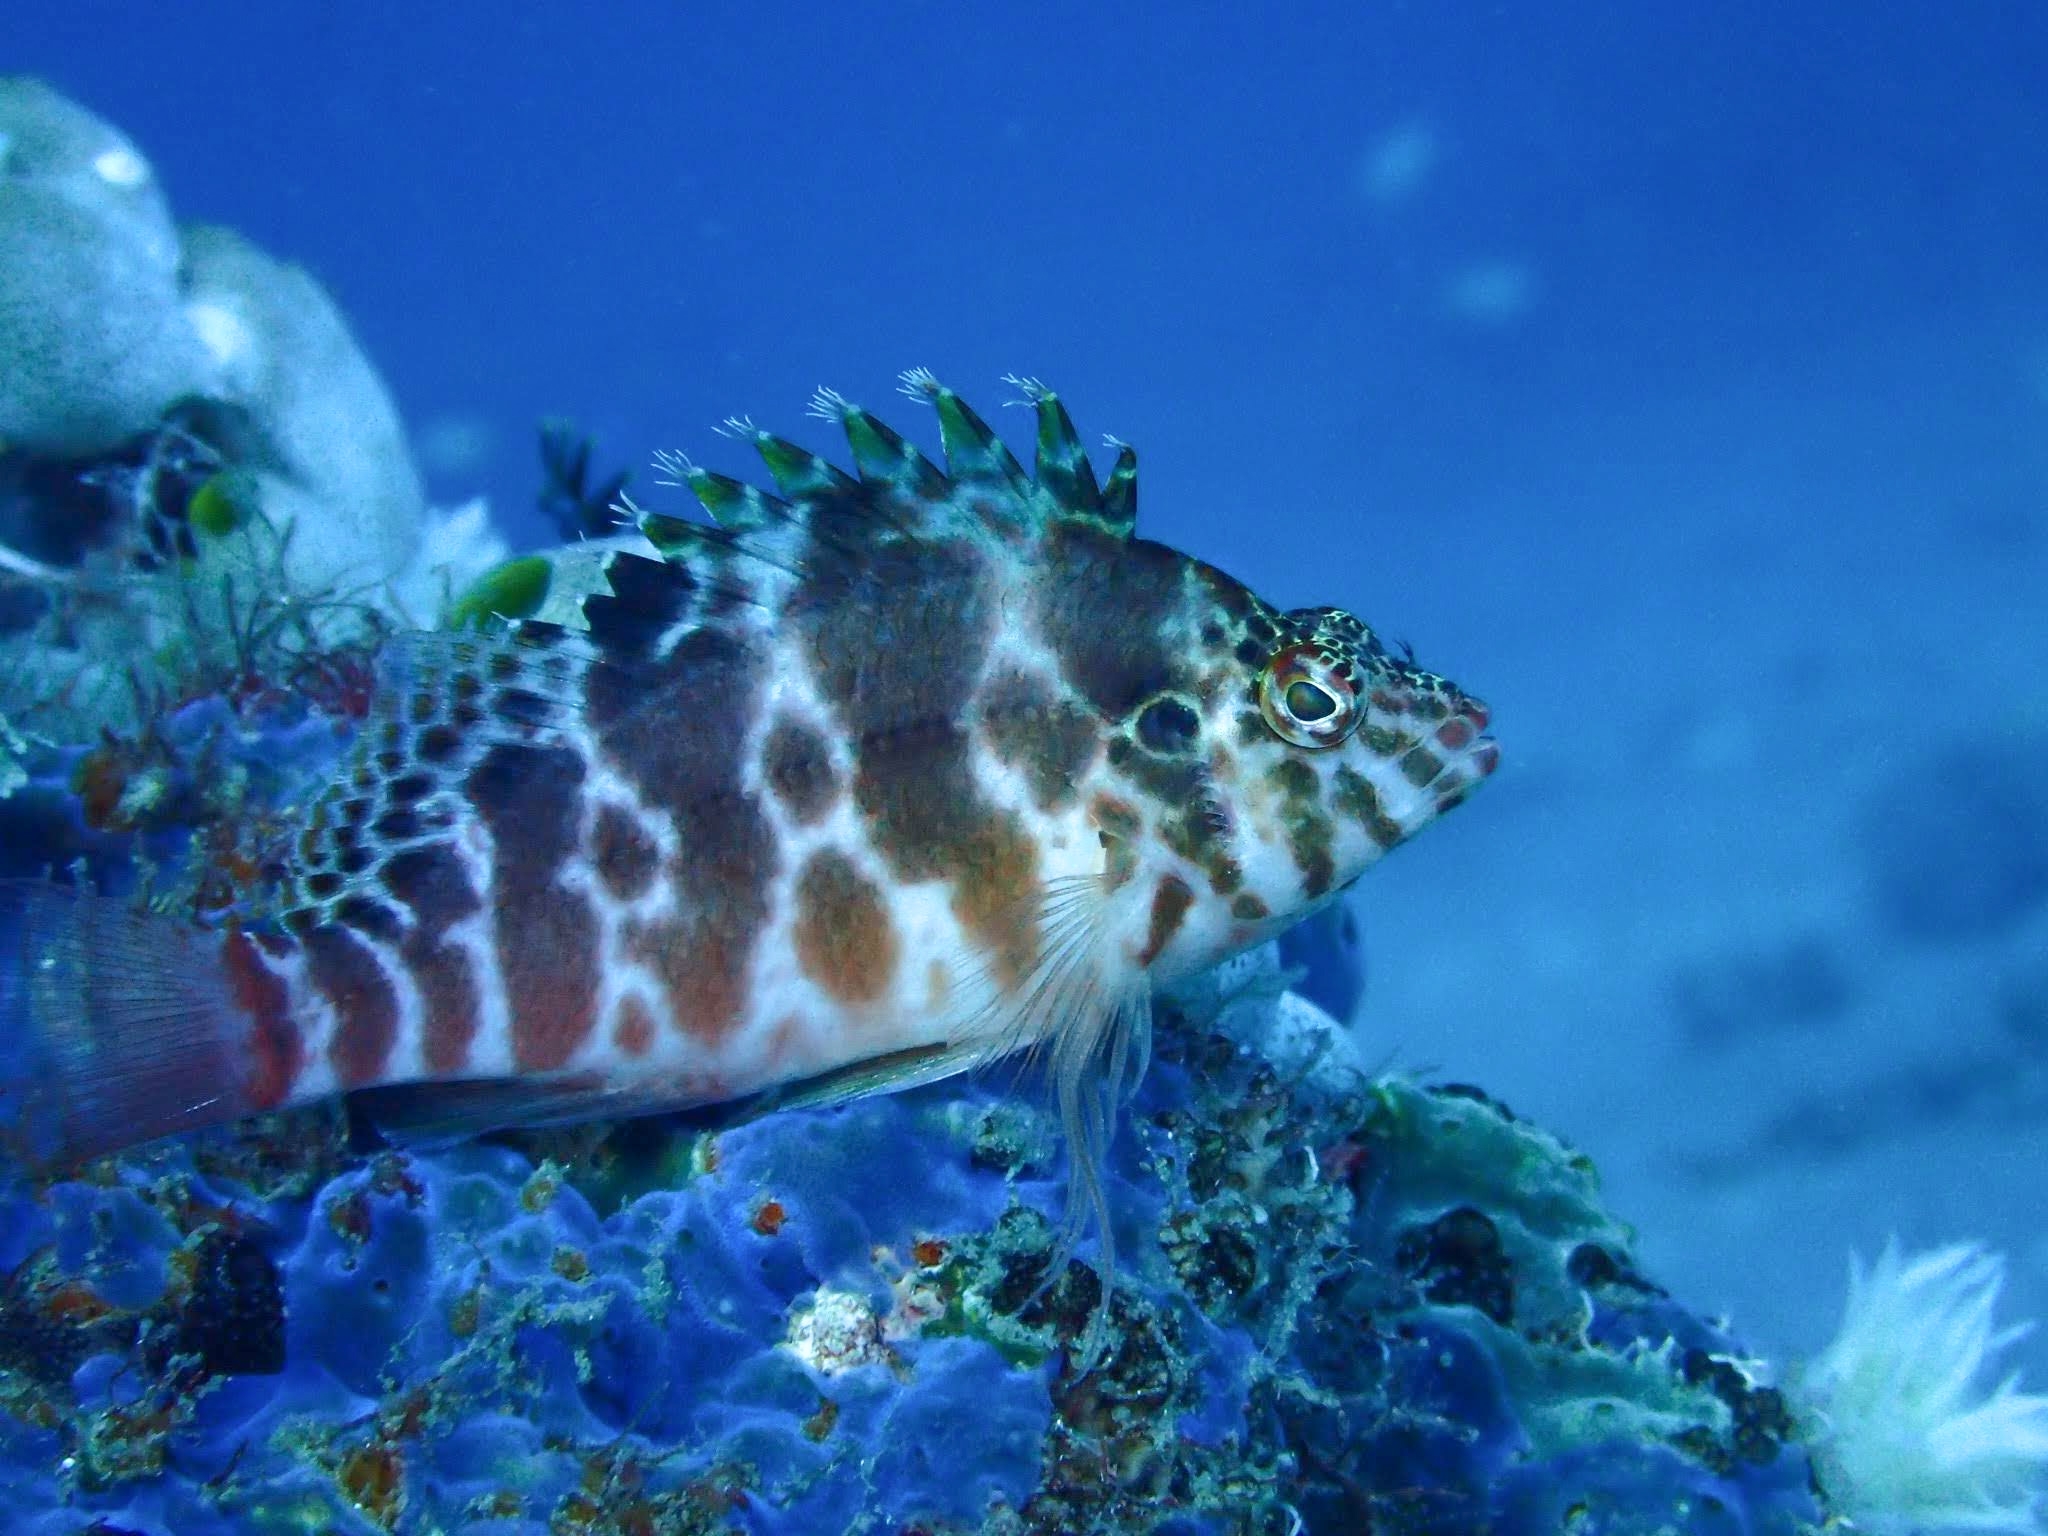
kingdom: Animalia
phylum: Chordata
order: Perciformes
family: Cirrhitidae
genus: Cirrhitichthys
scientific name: Cirrhitichthys aprinus
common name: Blotched hawkfish
